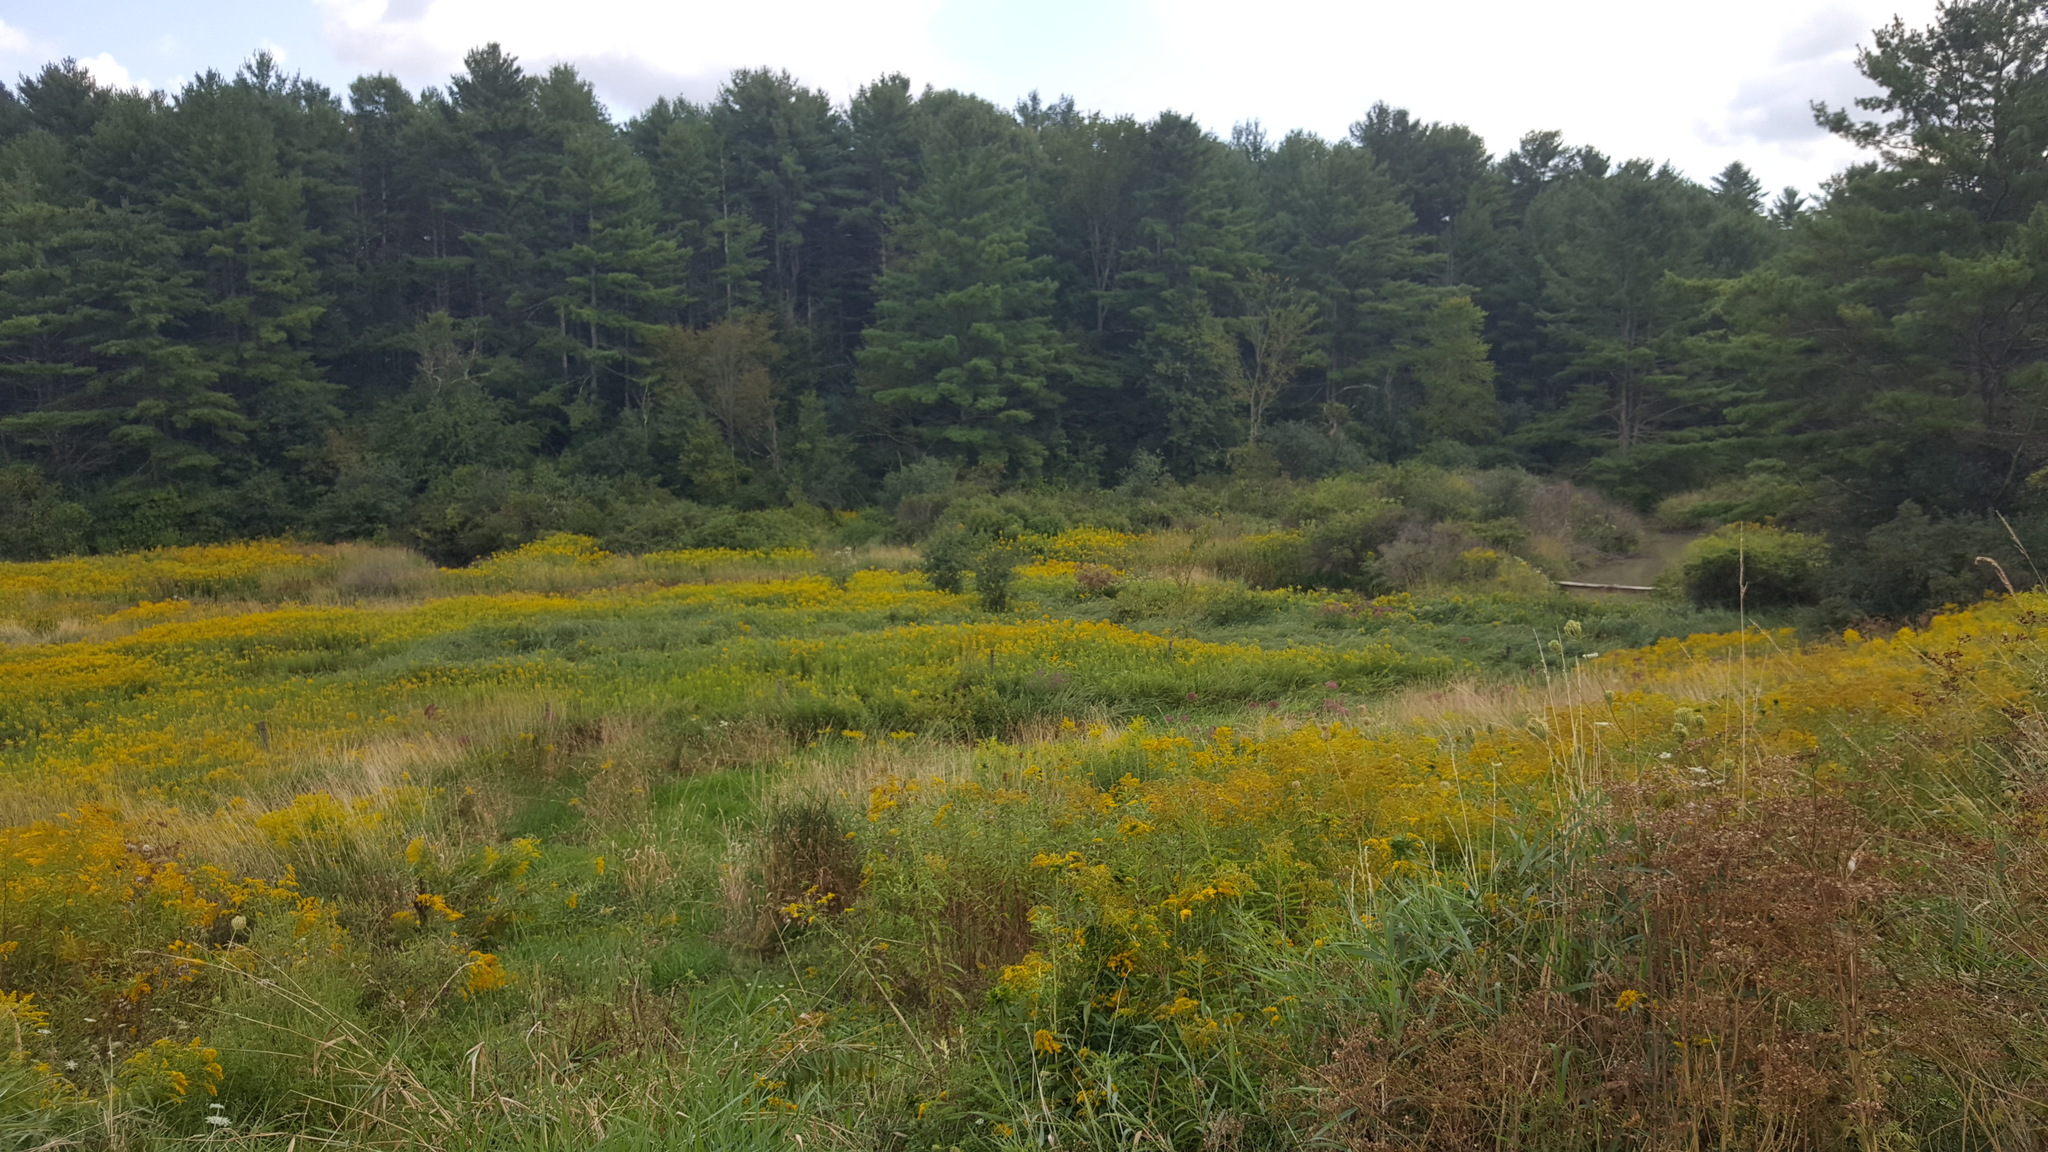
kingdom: Plantae
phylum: Tracheophyta
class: Pinopsida
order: Pinales
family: Pinaceae
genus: Pinus
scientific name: Pinus strobus
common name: Weymouth pine
